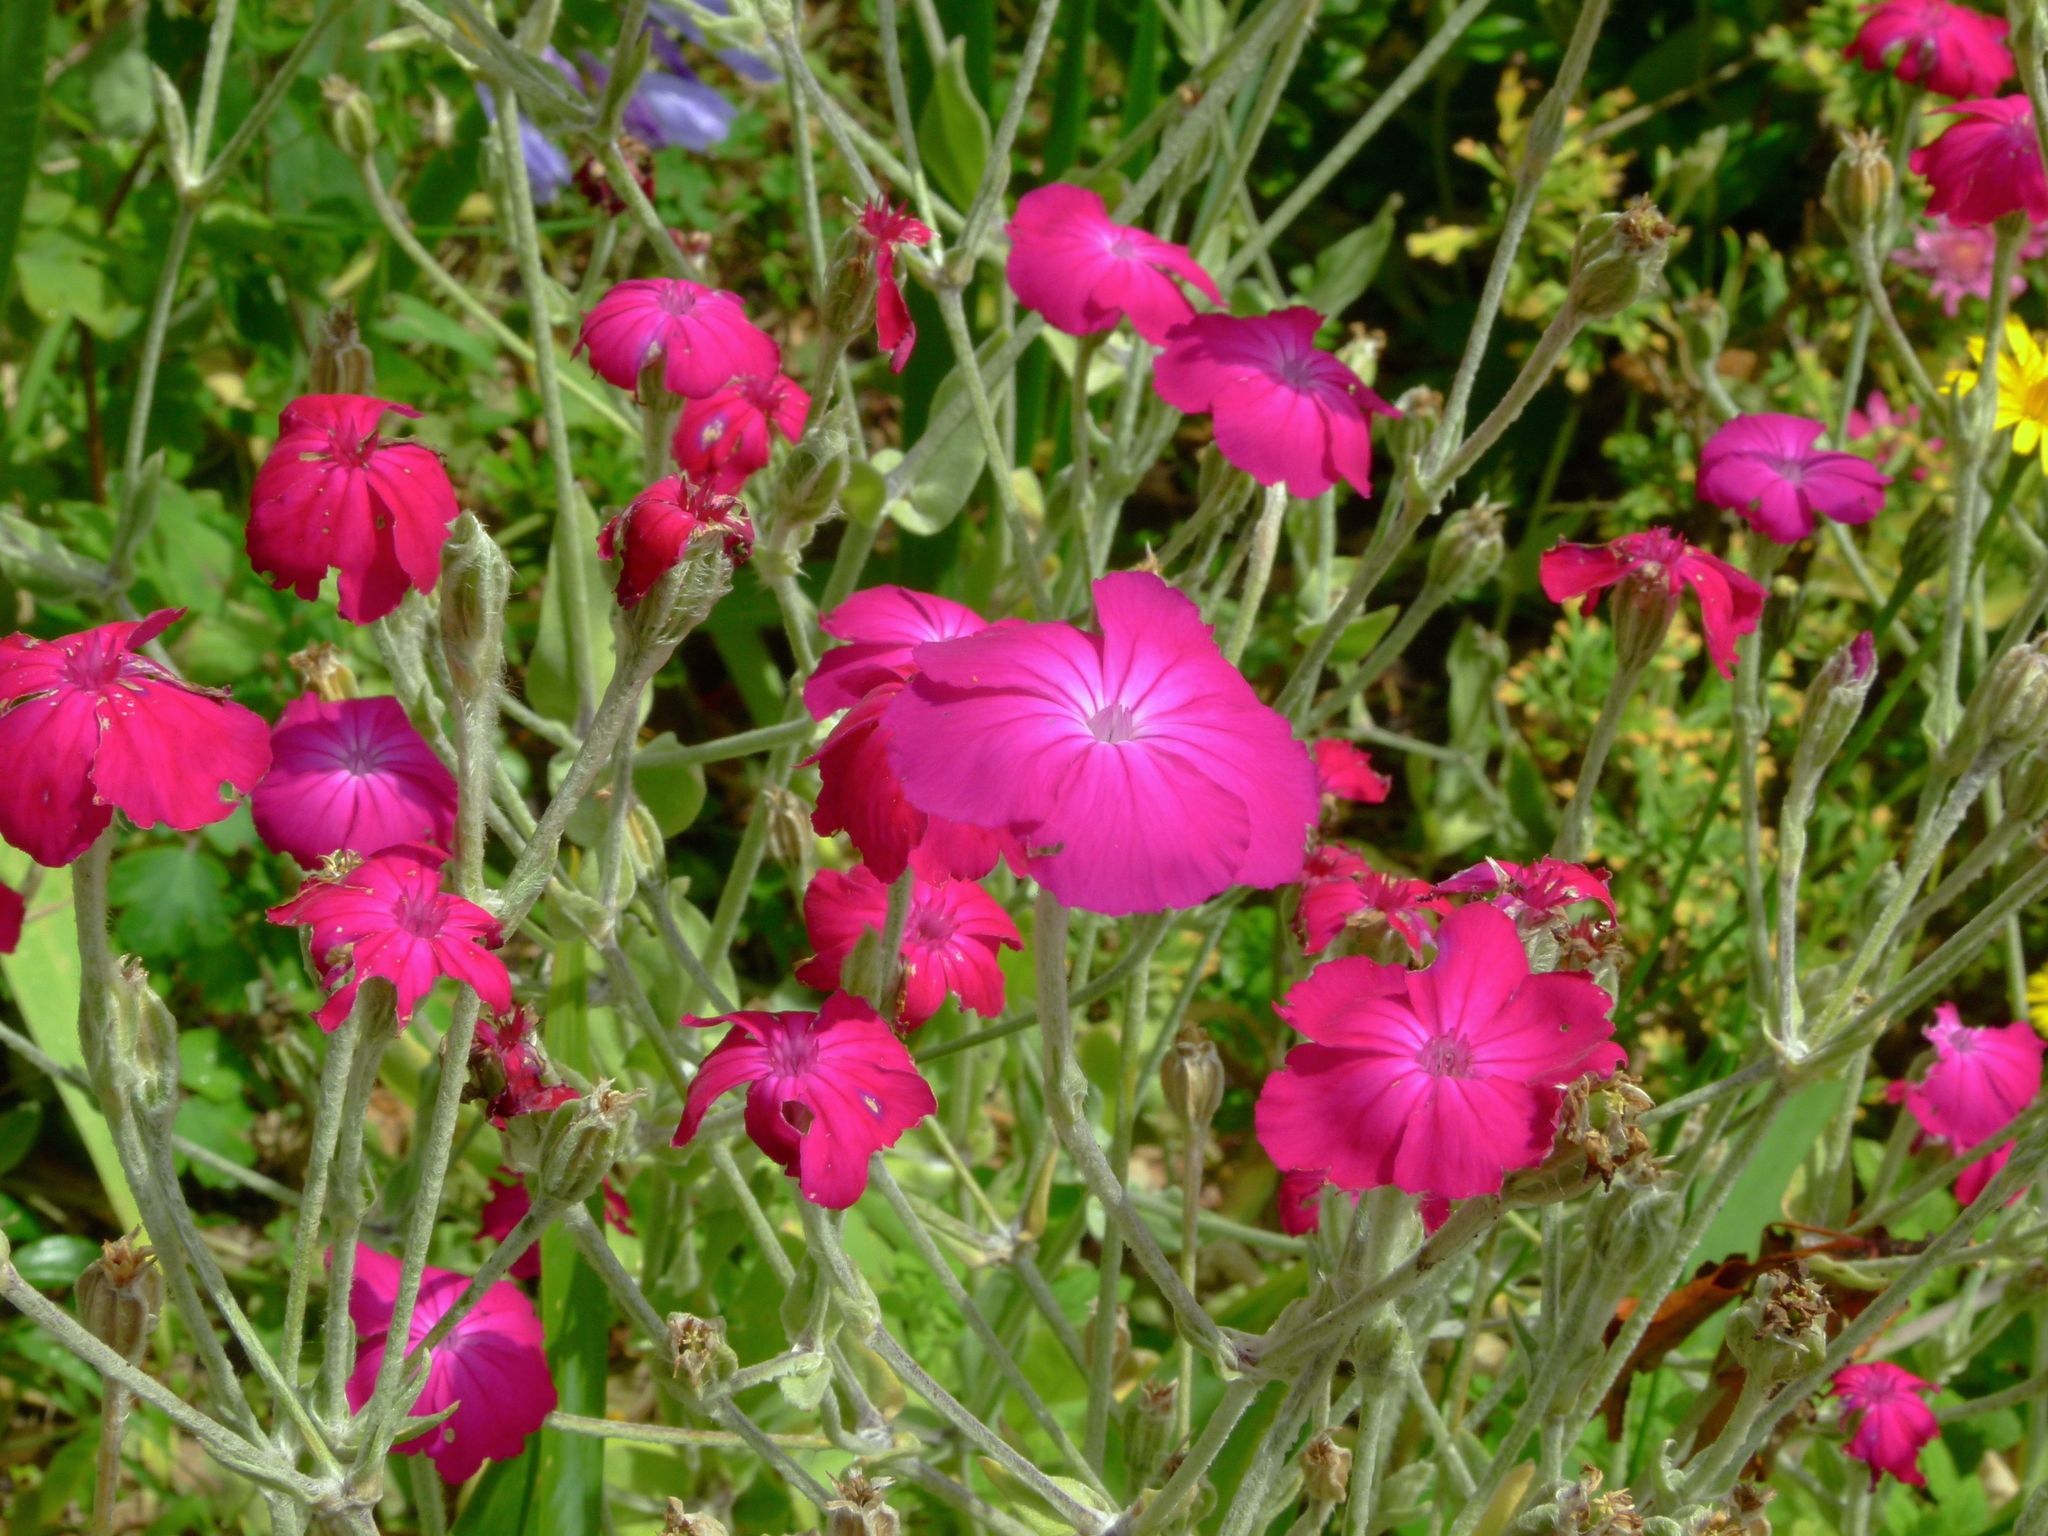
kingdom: Animalia
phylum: Arthropoda
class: Insecta
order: Hymenoptera
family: Megachilidae
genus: Anthidium
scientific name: Anthidium manicatum
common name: Wool carder bee
